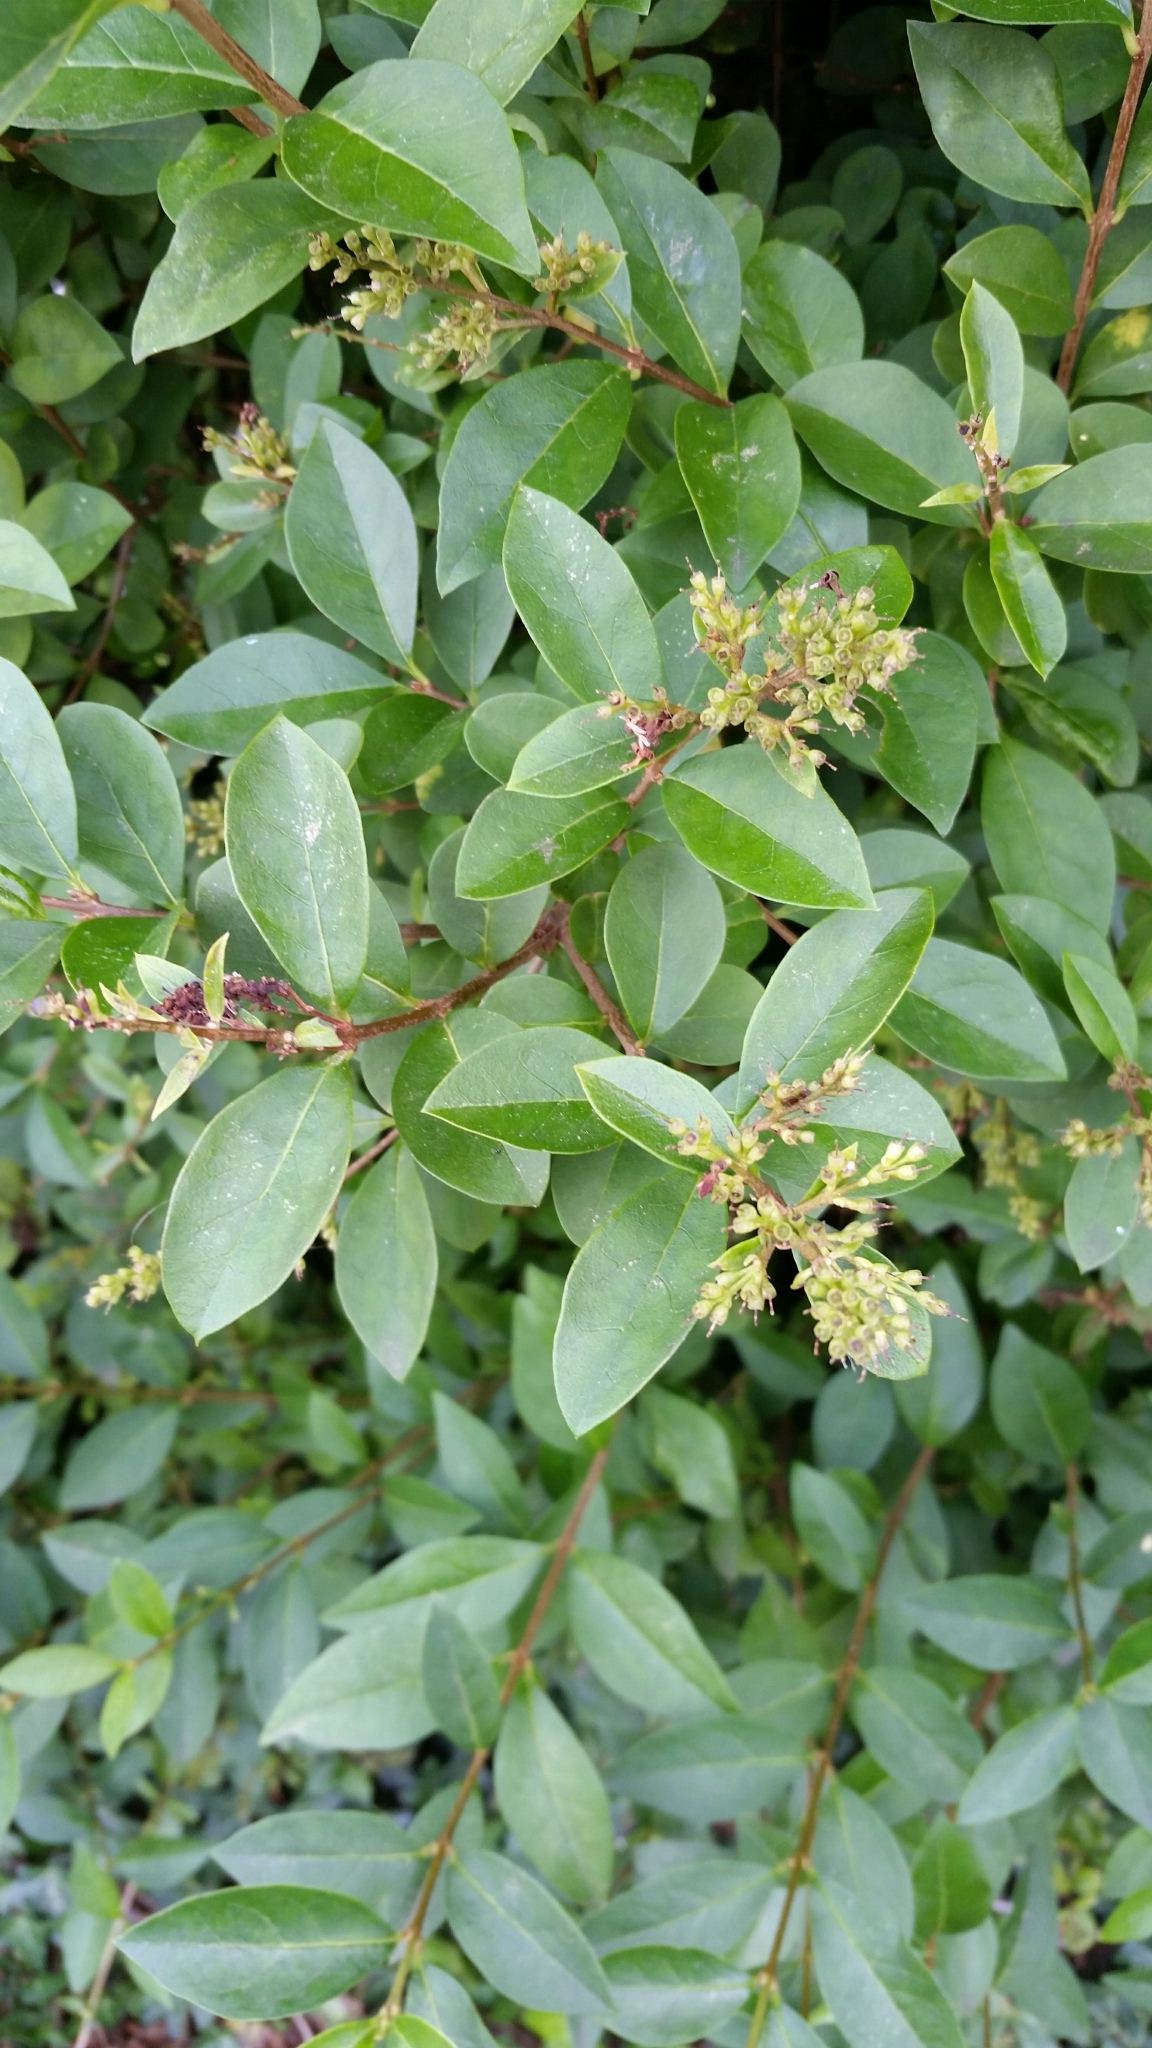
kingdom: Plantae
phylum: Tracheophyta
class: Magnoliopsida
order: Lamiales
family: Oleaceae
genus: Ligustrum
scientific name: Ligustrum ovalifolium
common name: California privet
